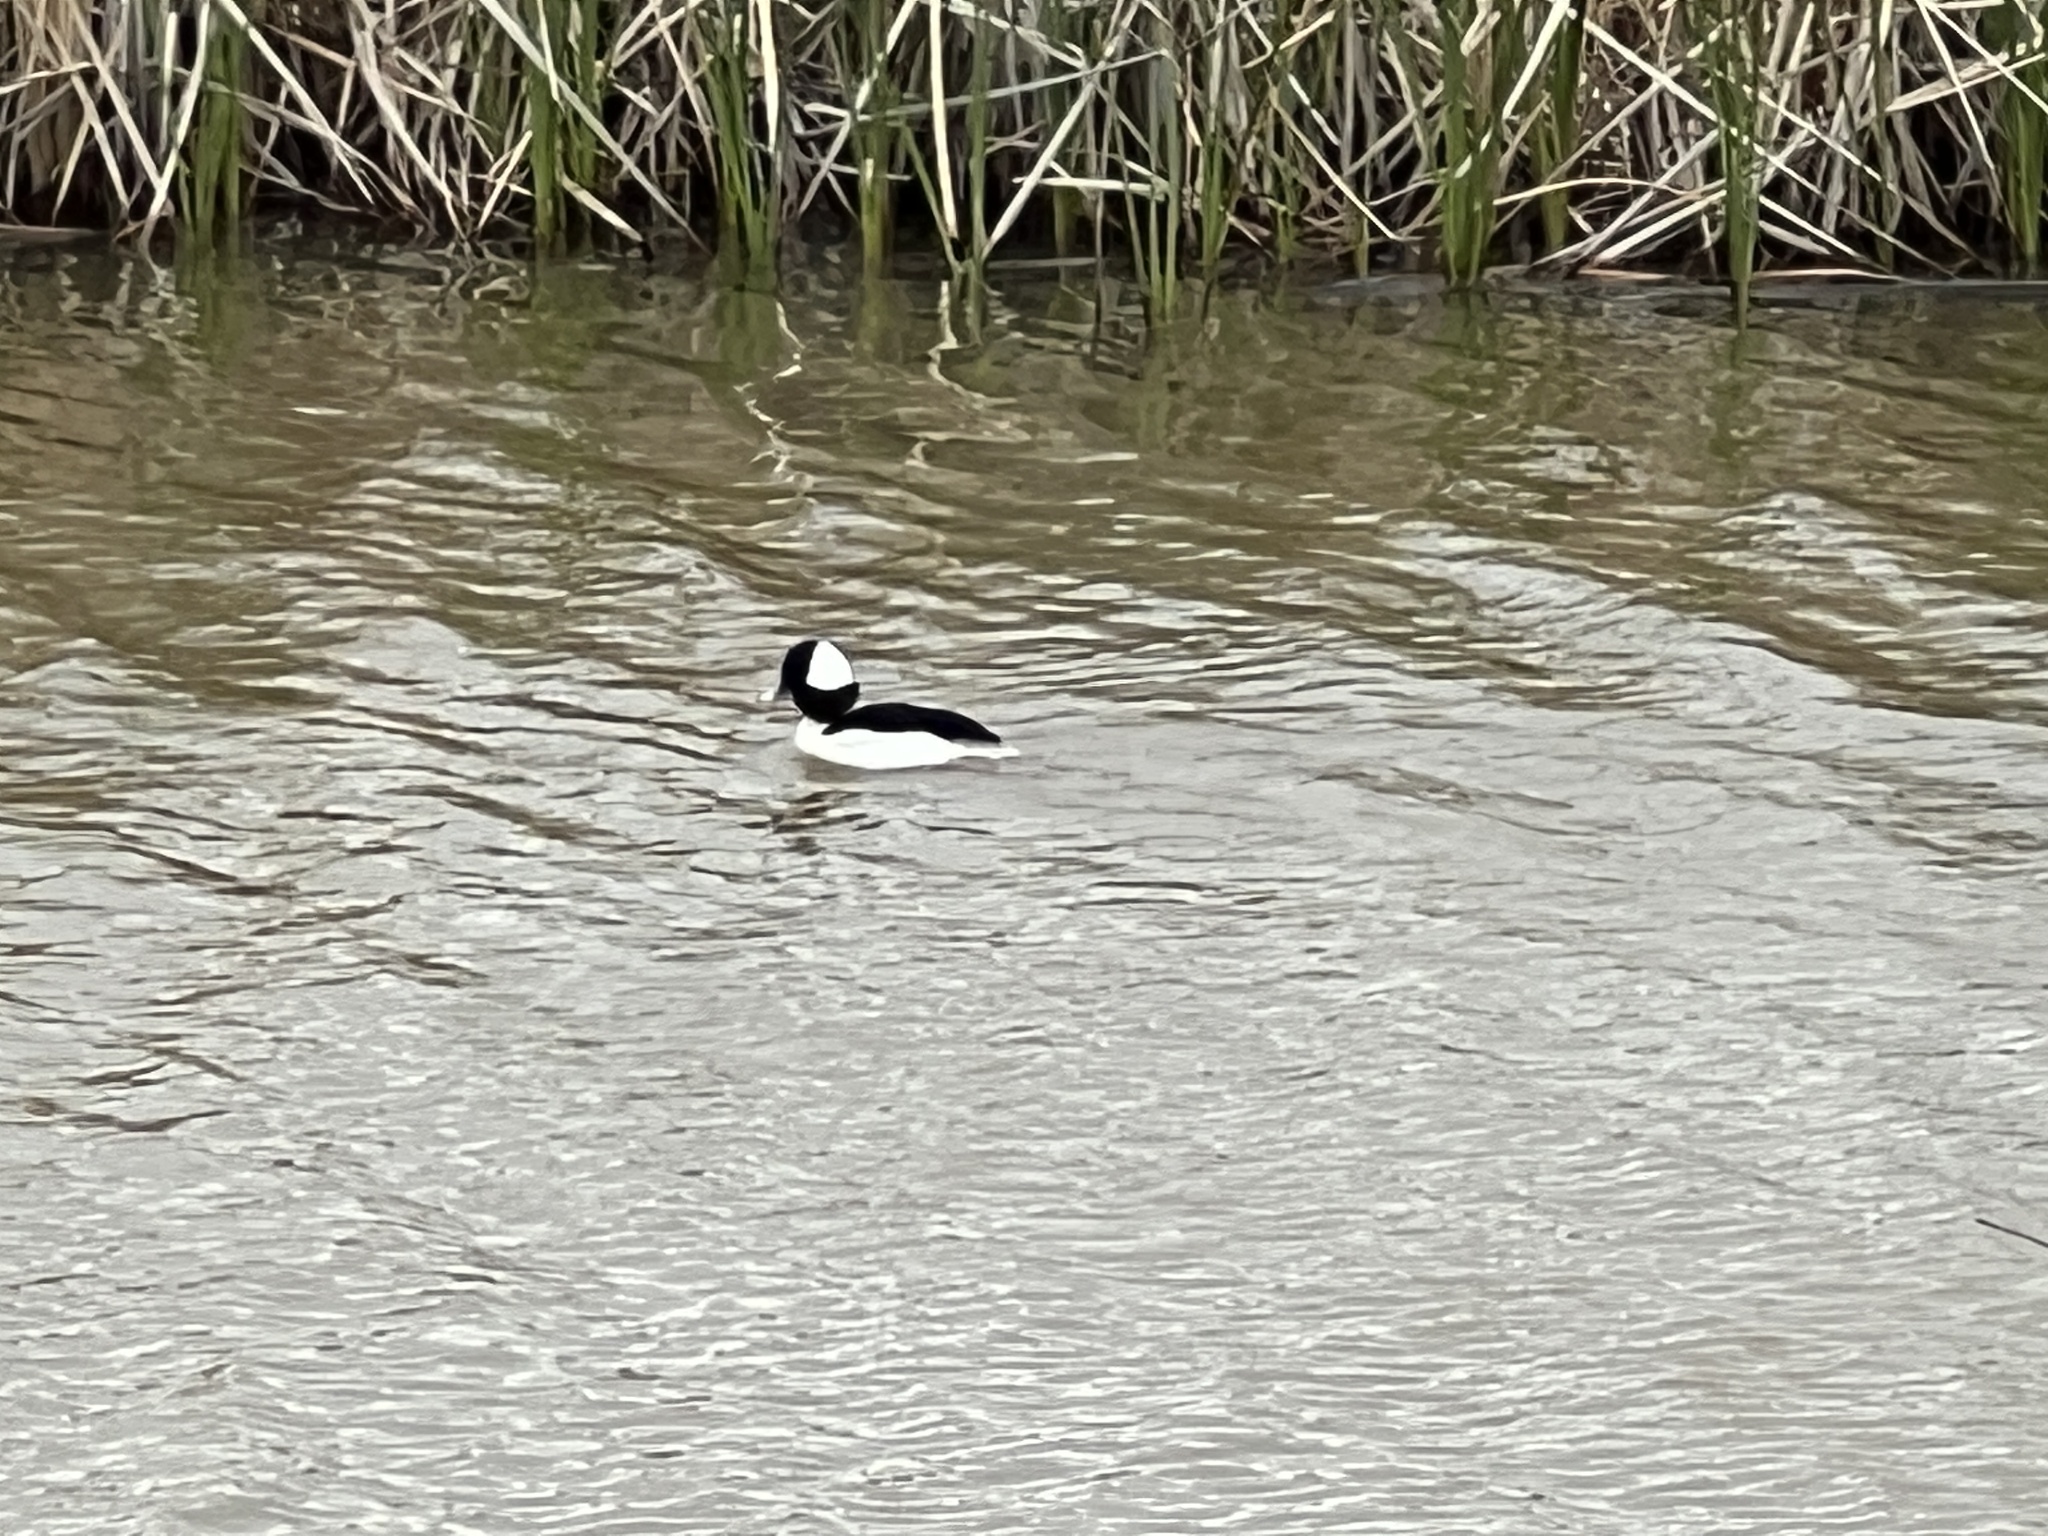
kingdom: Animalia
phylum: Chordata
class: Aves
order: Anseriformes
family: Anatidae
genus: Bucephala
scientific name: Bucephala albeola
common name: Bufflehead
